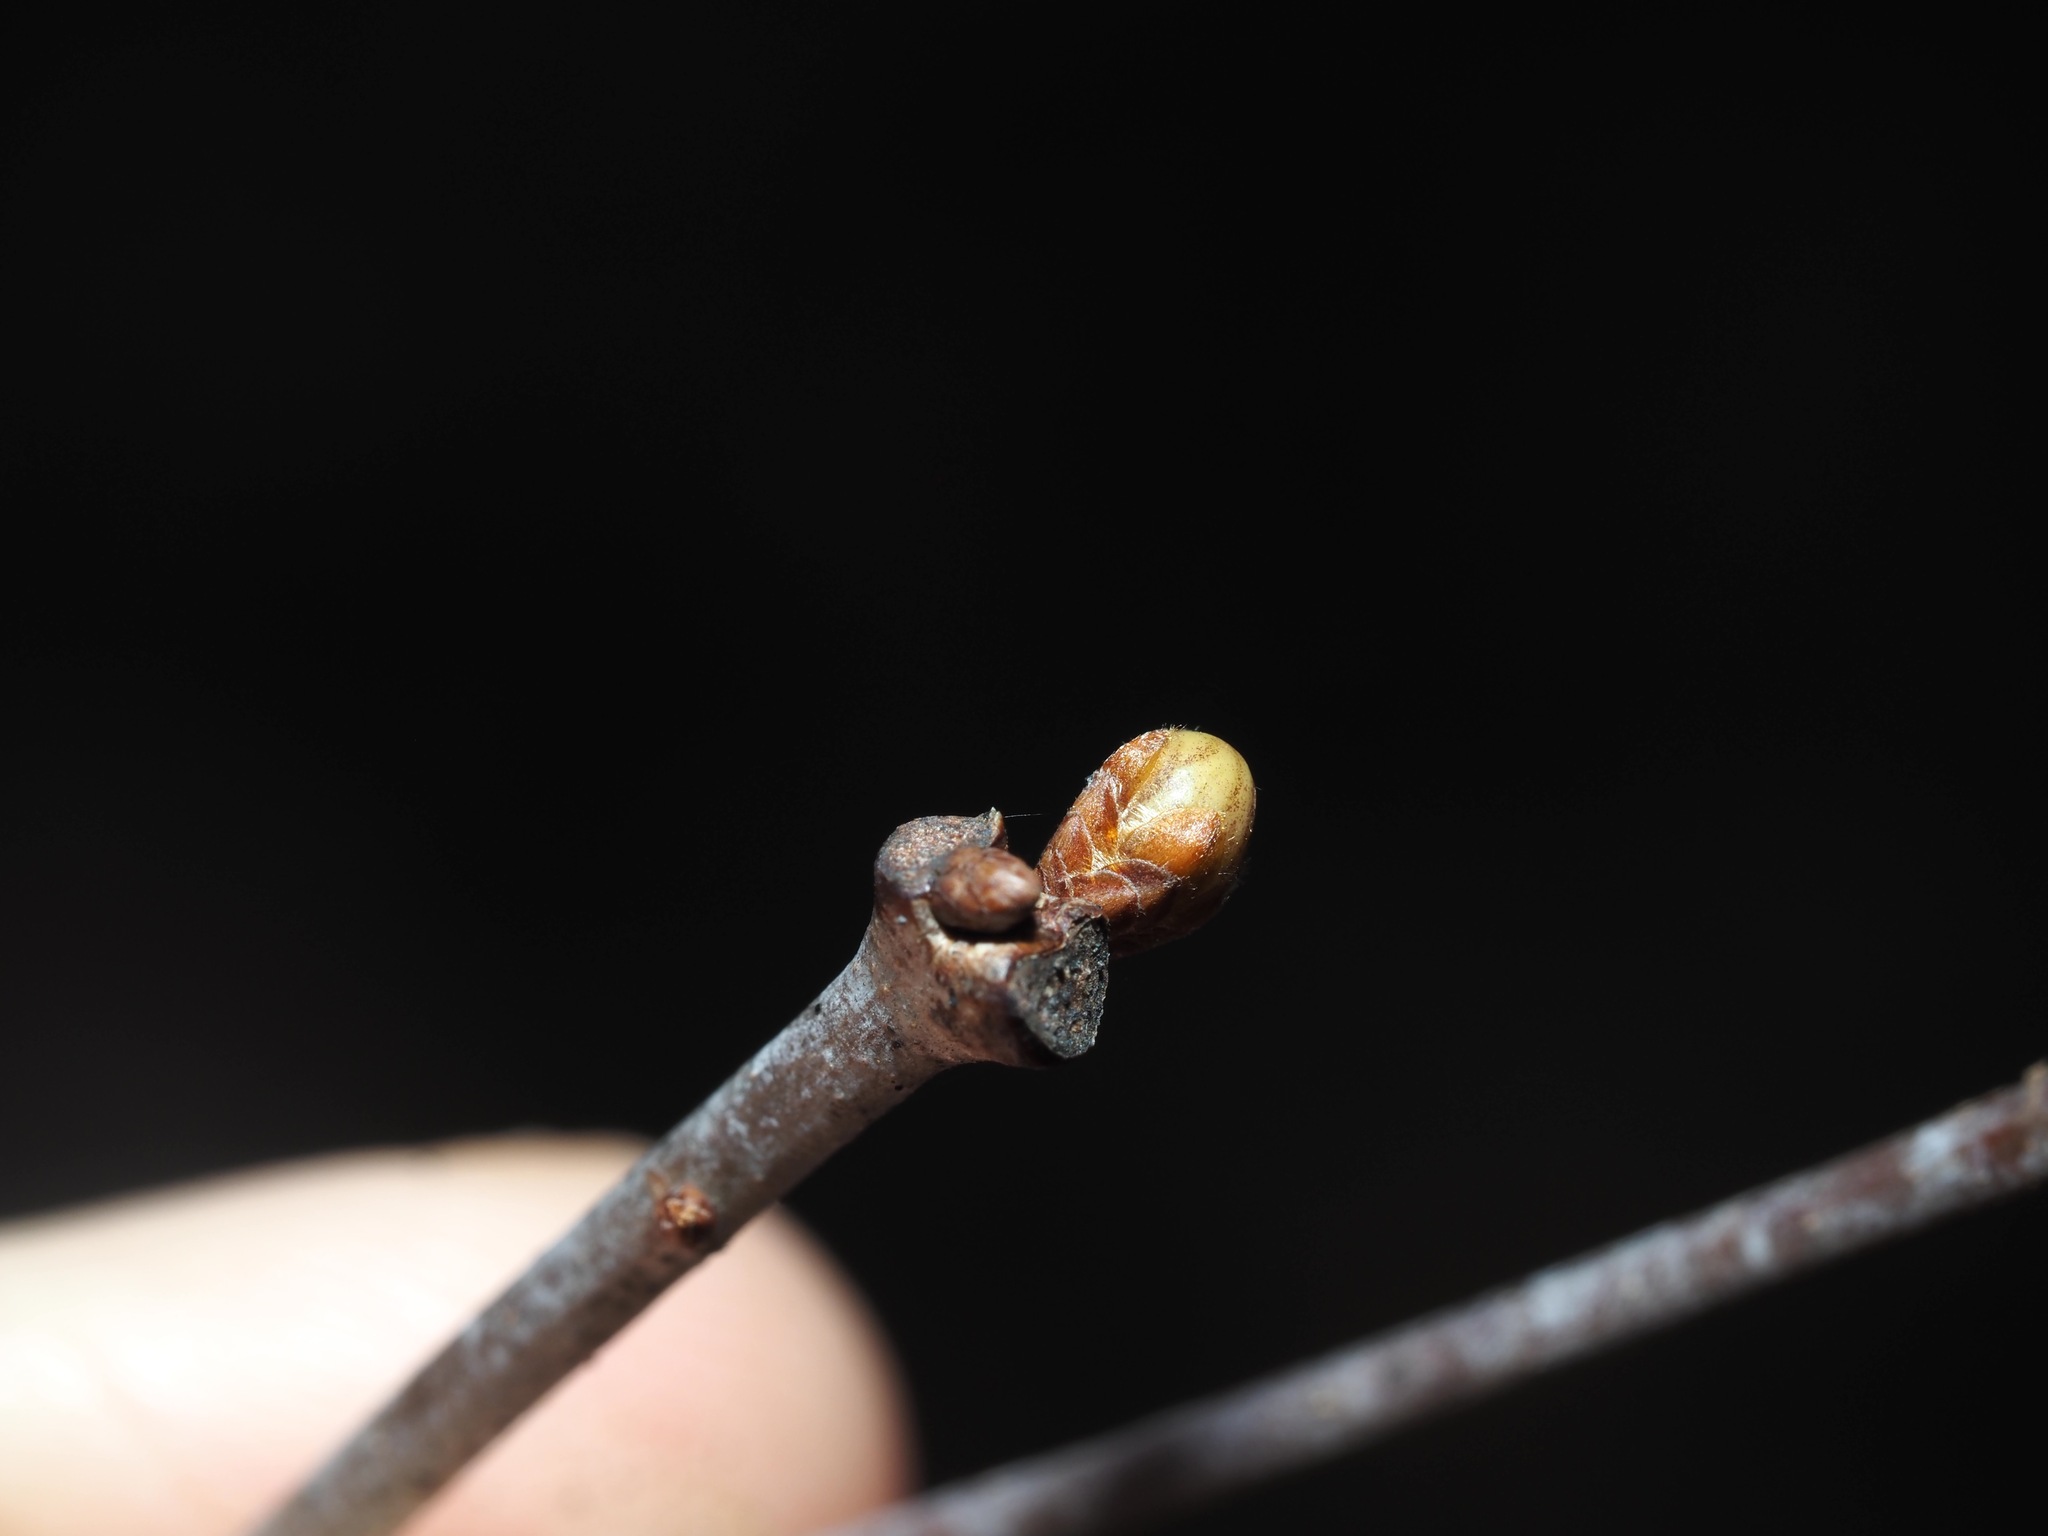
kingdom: Animalia
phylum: Arthropoda
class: Insecta
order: Hymenoptera
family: Cynipidae
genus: Neuroterus
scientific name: Neuroterus
